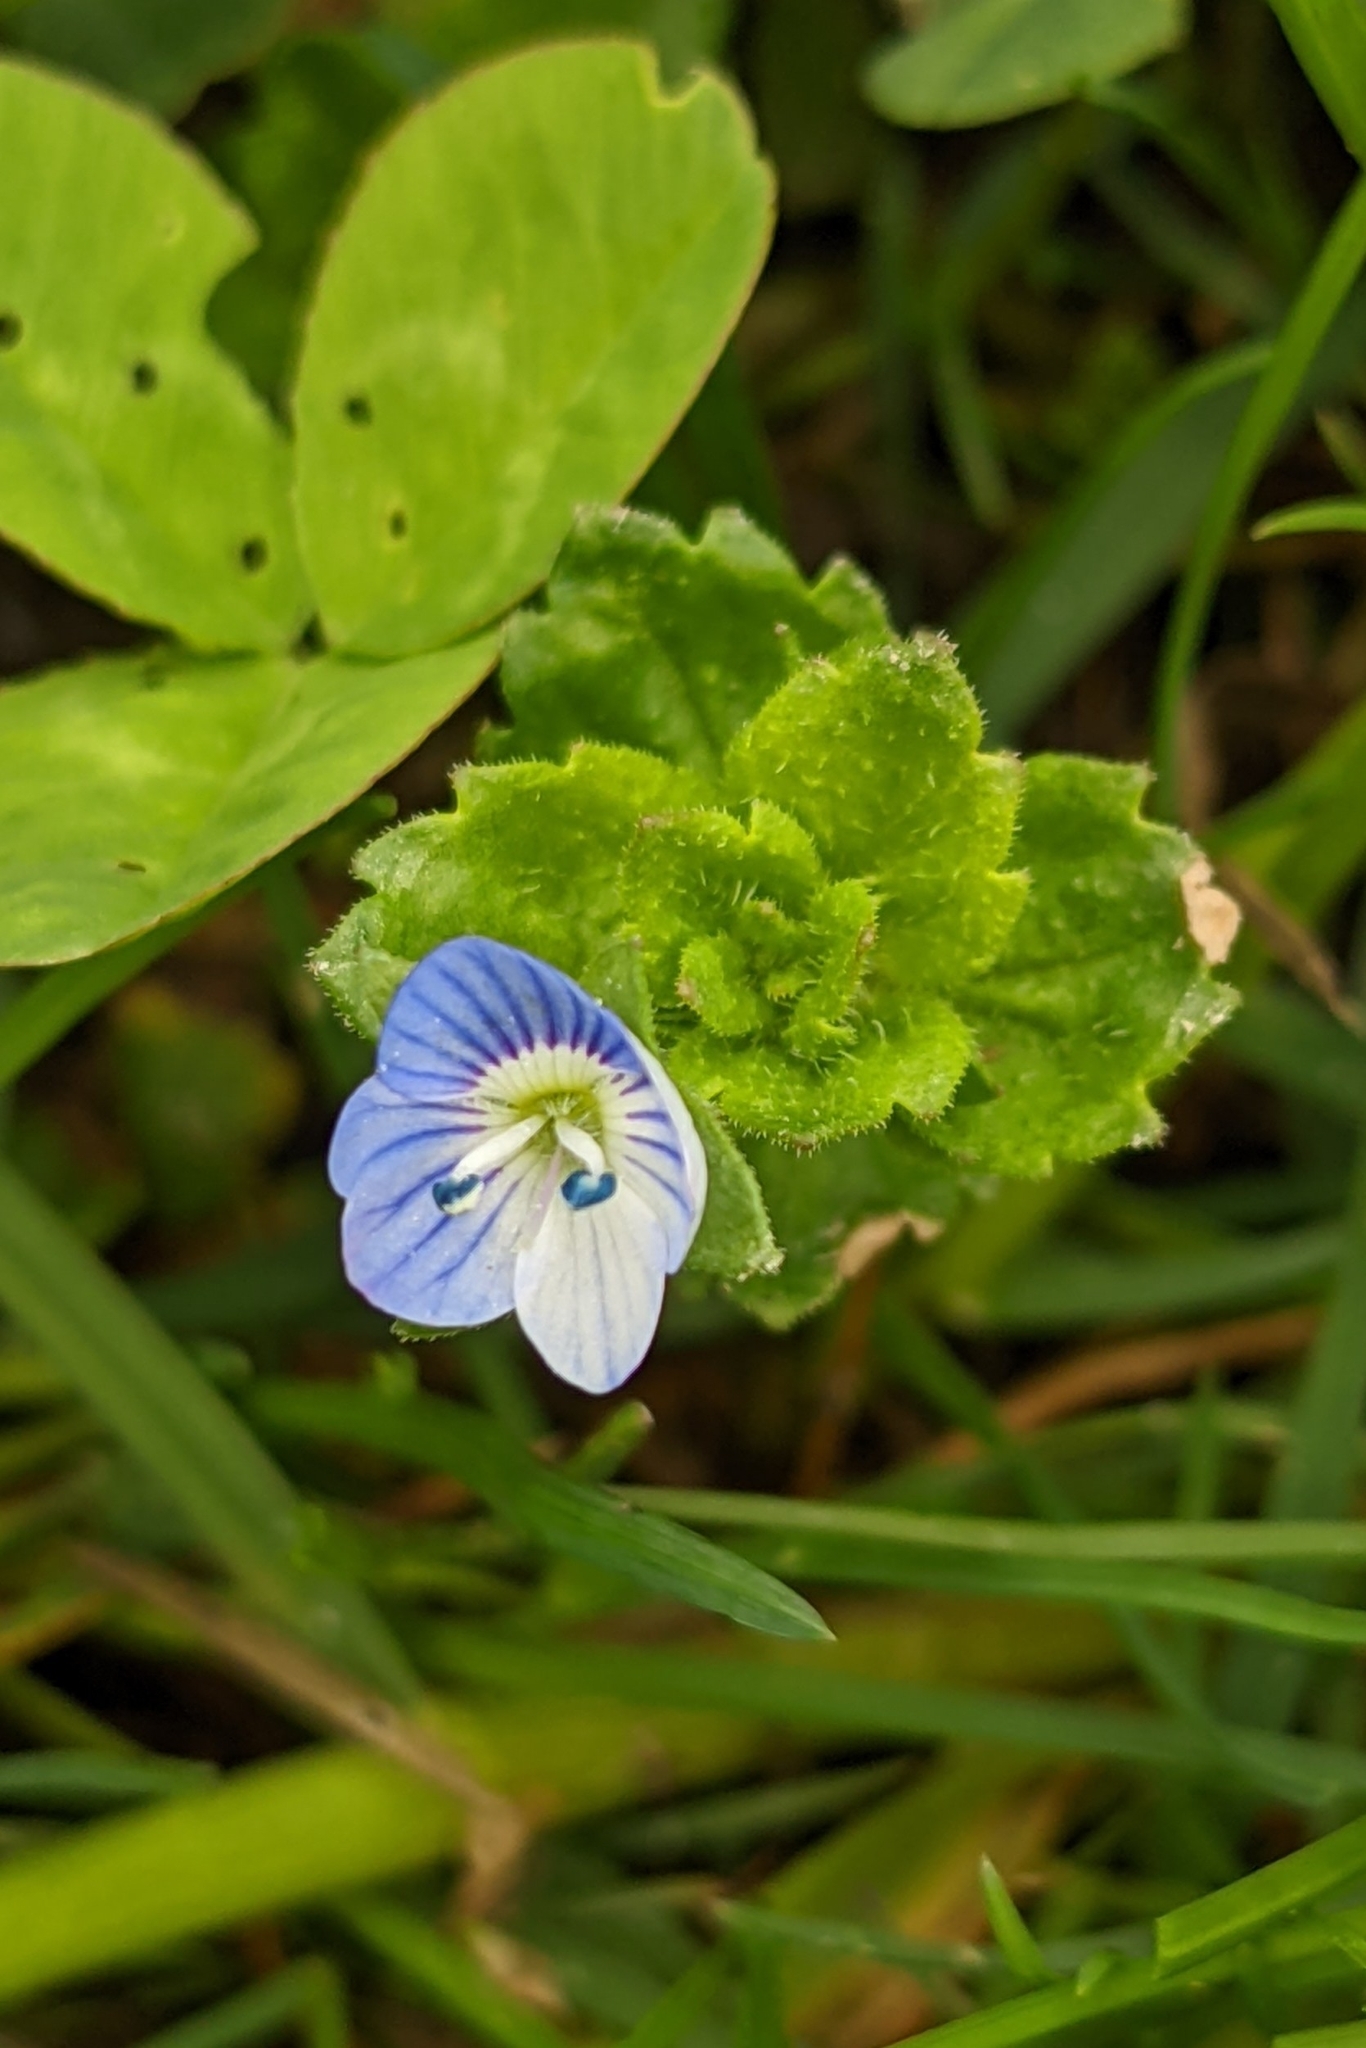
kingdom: Plantae
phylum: Tracheophyta
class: Magnoliopsida
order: Lamiales
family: Plantaginaceae
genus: Veronica
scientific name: Veronica persica
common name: Common field-speedwell
